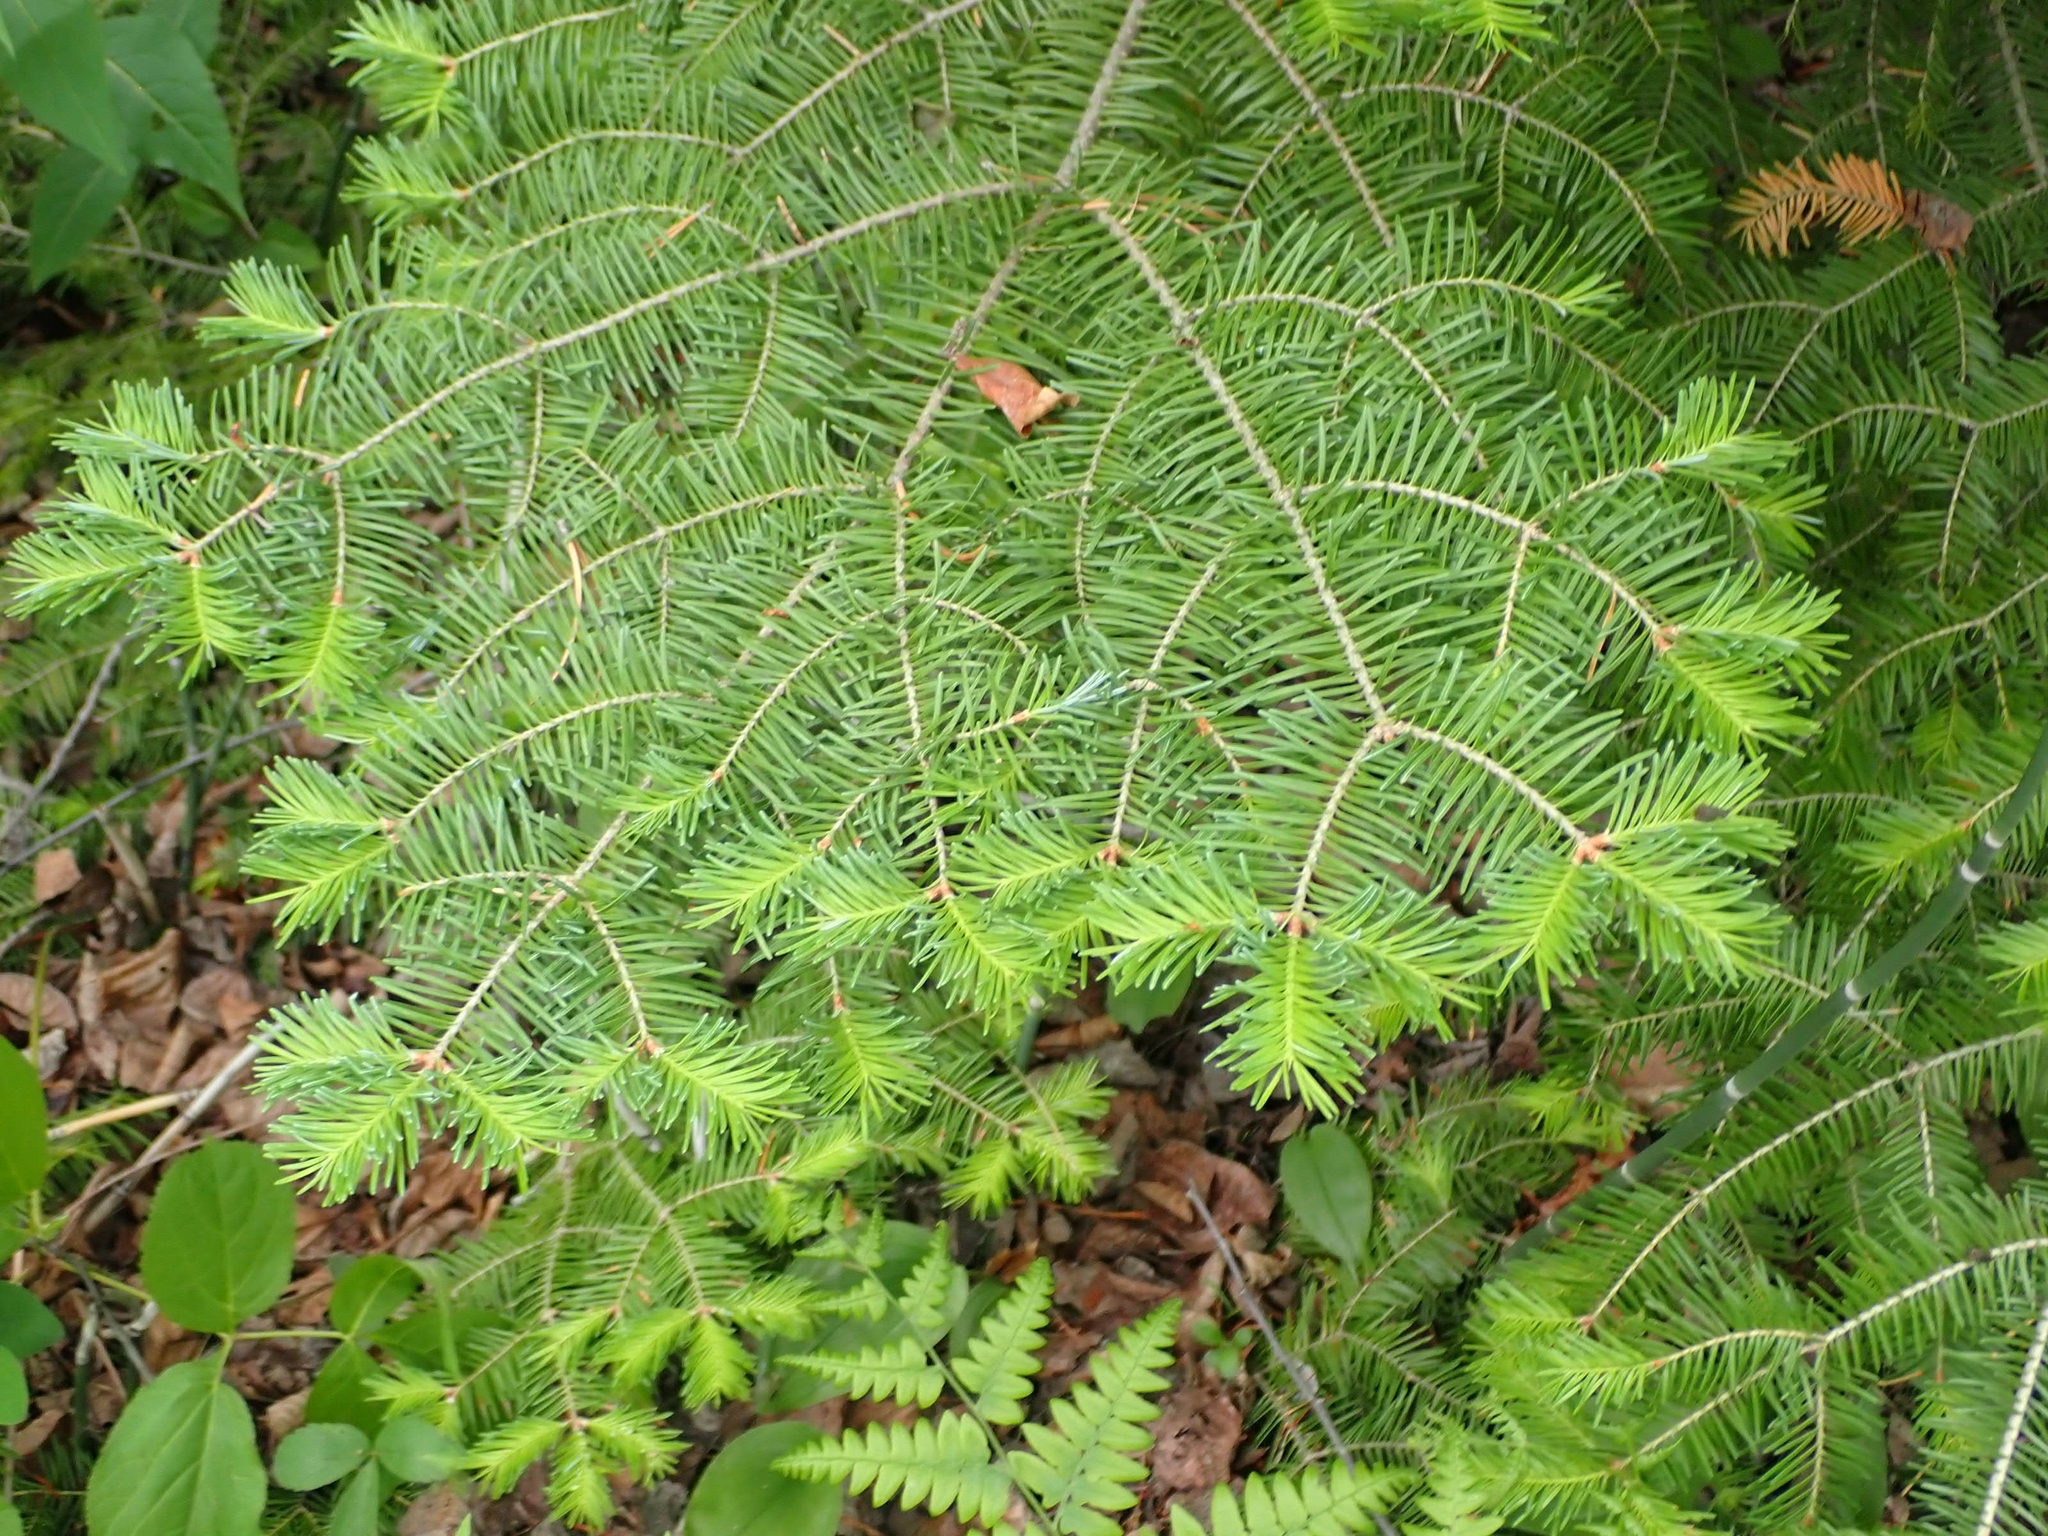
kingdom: Plantae
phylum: Tracheophyta
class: Pinopsida
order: Pinales
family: Pinaceae
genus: Abies
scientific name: Abies balsamea
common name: Balsam fir
